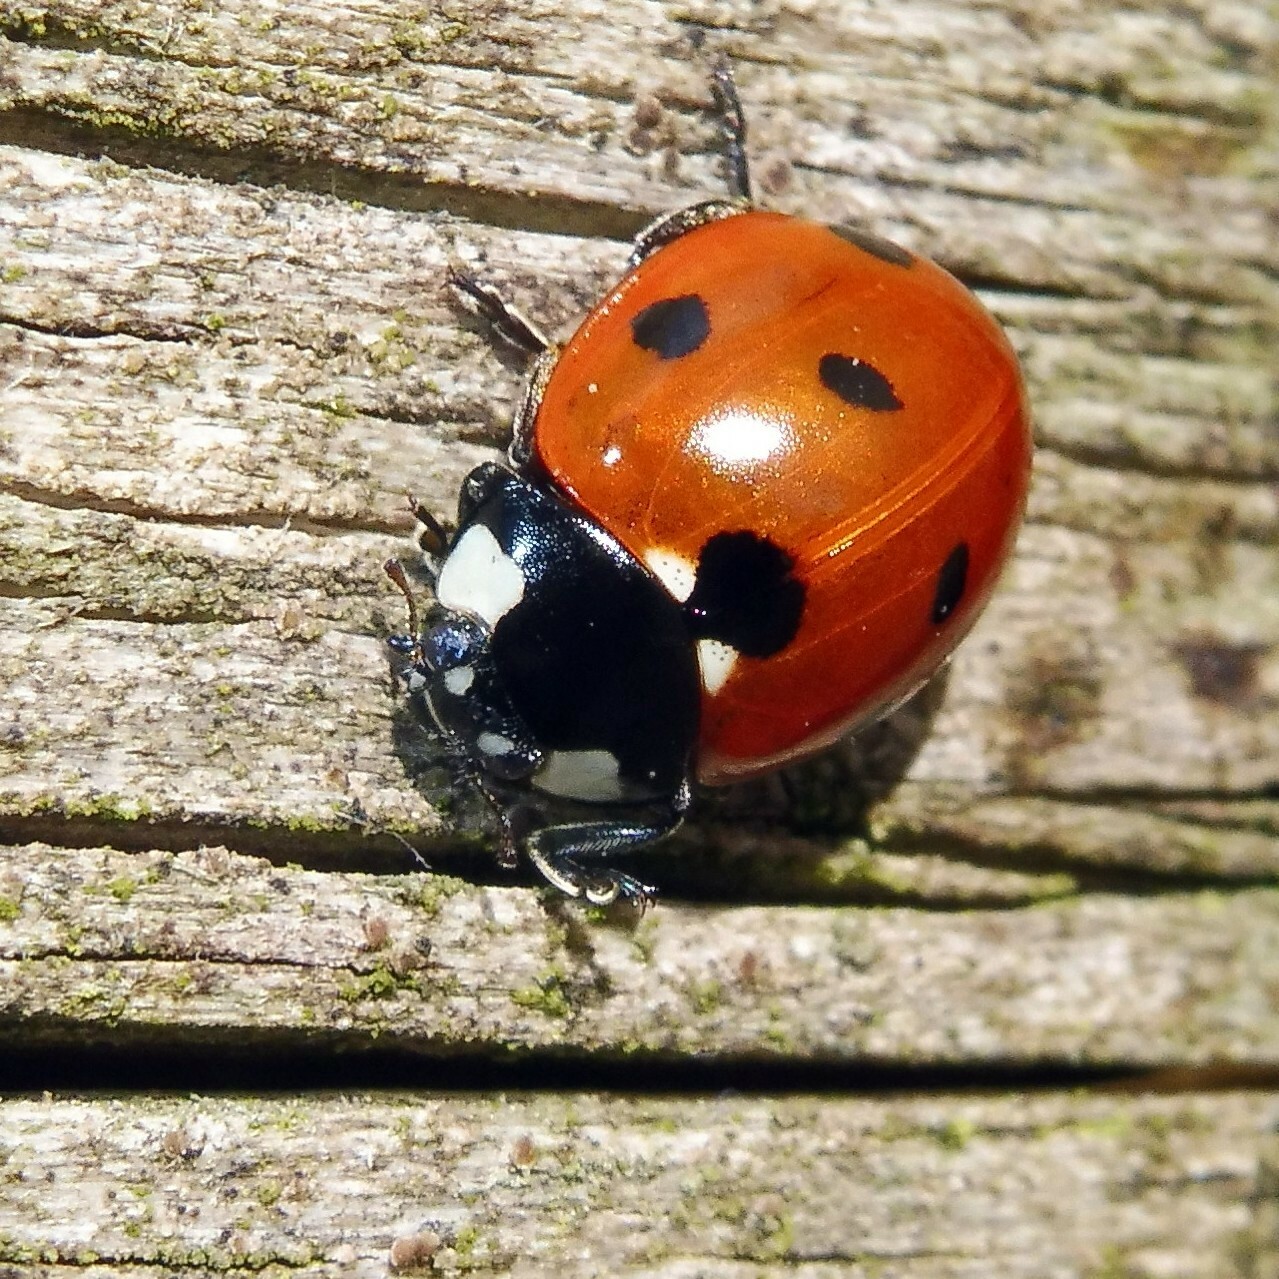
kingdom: Animalia
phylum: Arthropoda
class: Insecta
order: Coleoptera
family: Coccinellidae
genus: Coccinella
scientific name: Coccinella septempunctata
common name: Sevenspotted lady beetle
